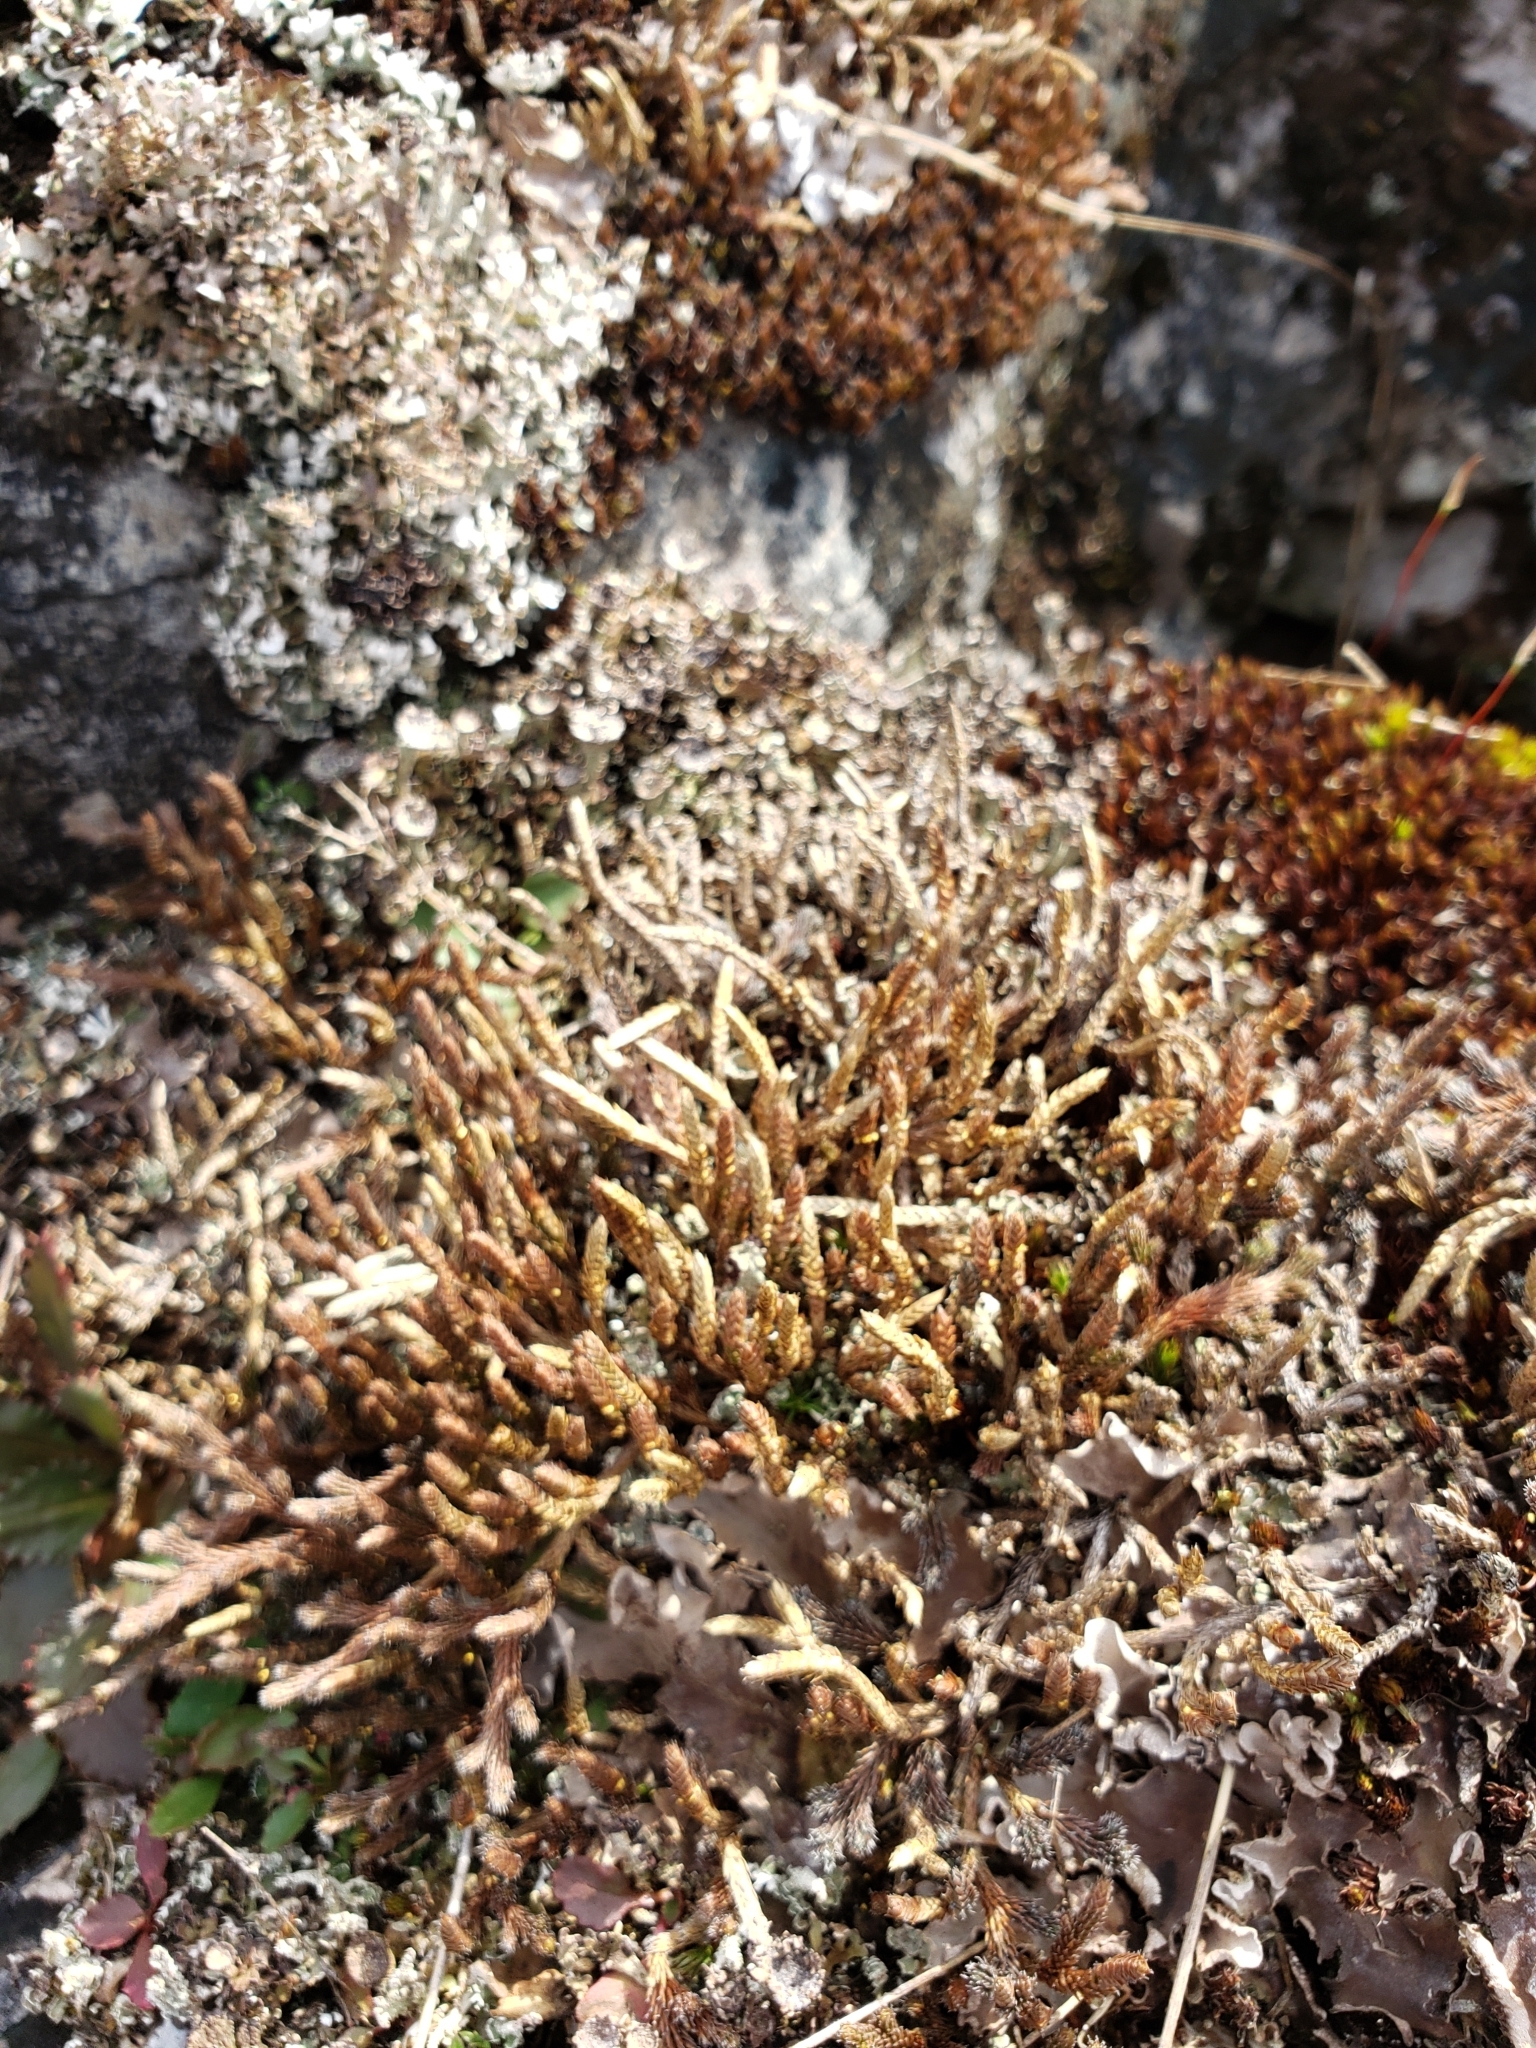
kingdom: Plantae
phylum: Tracheophyta
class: Lycopodiopsida
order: Selaginellales
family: Selaginellaceae
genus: Selaginella
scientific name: Selaginella rupestris
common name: Dwarf spikemoss
